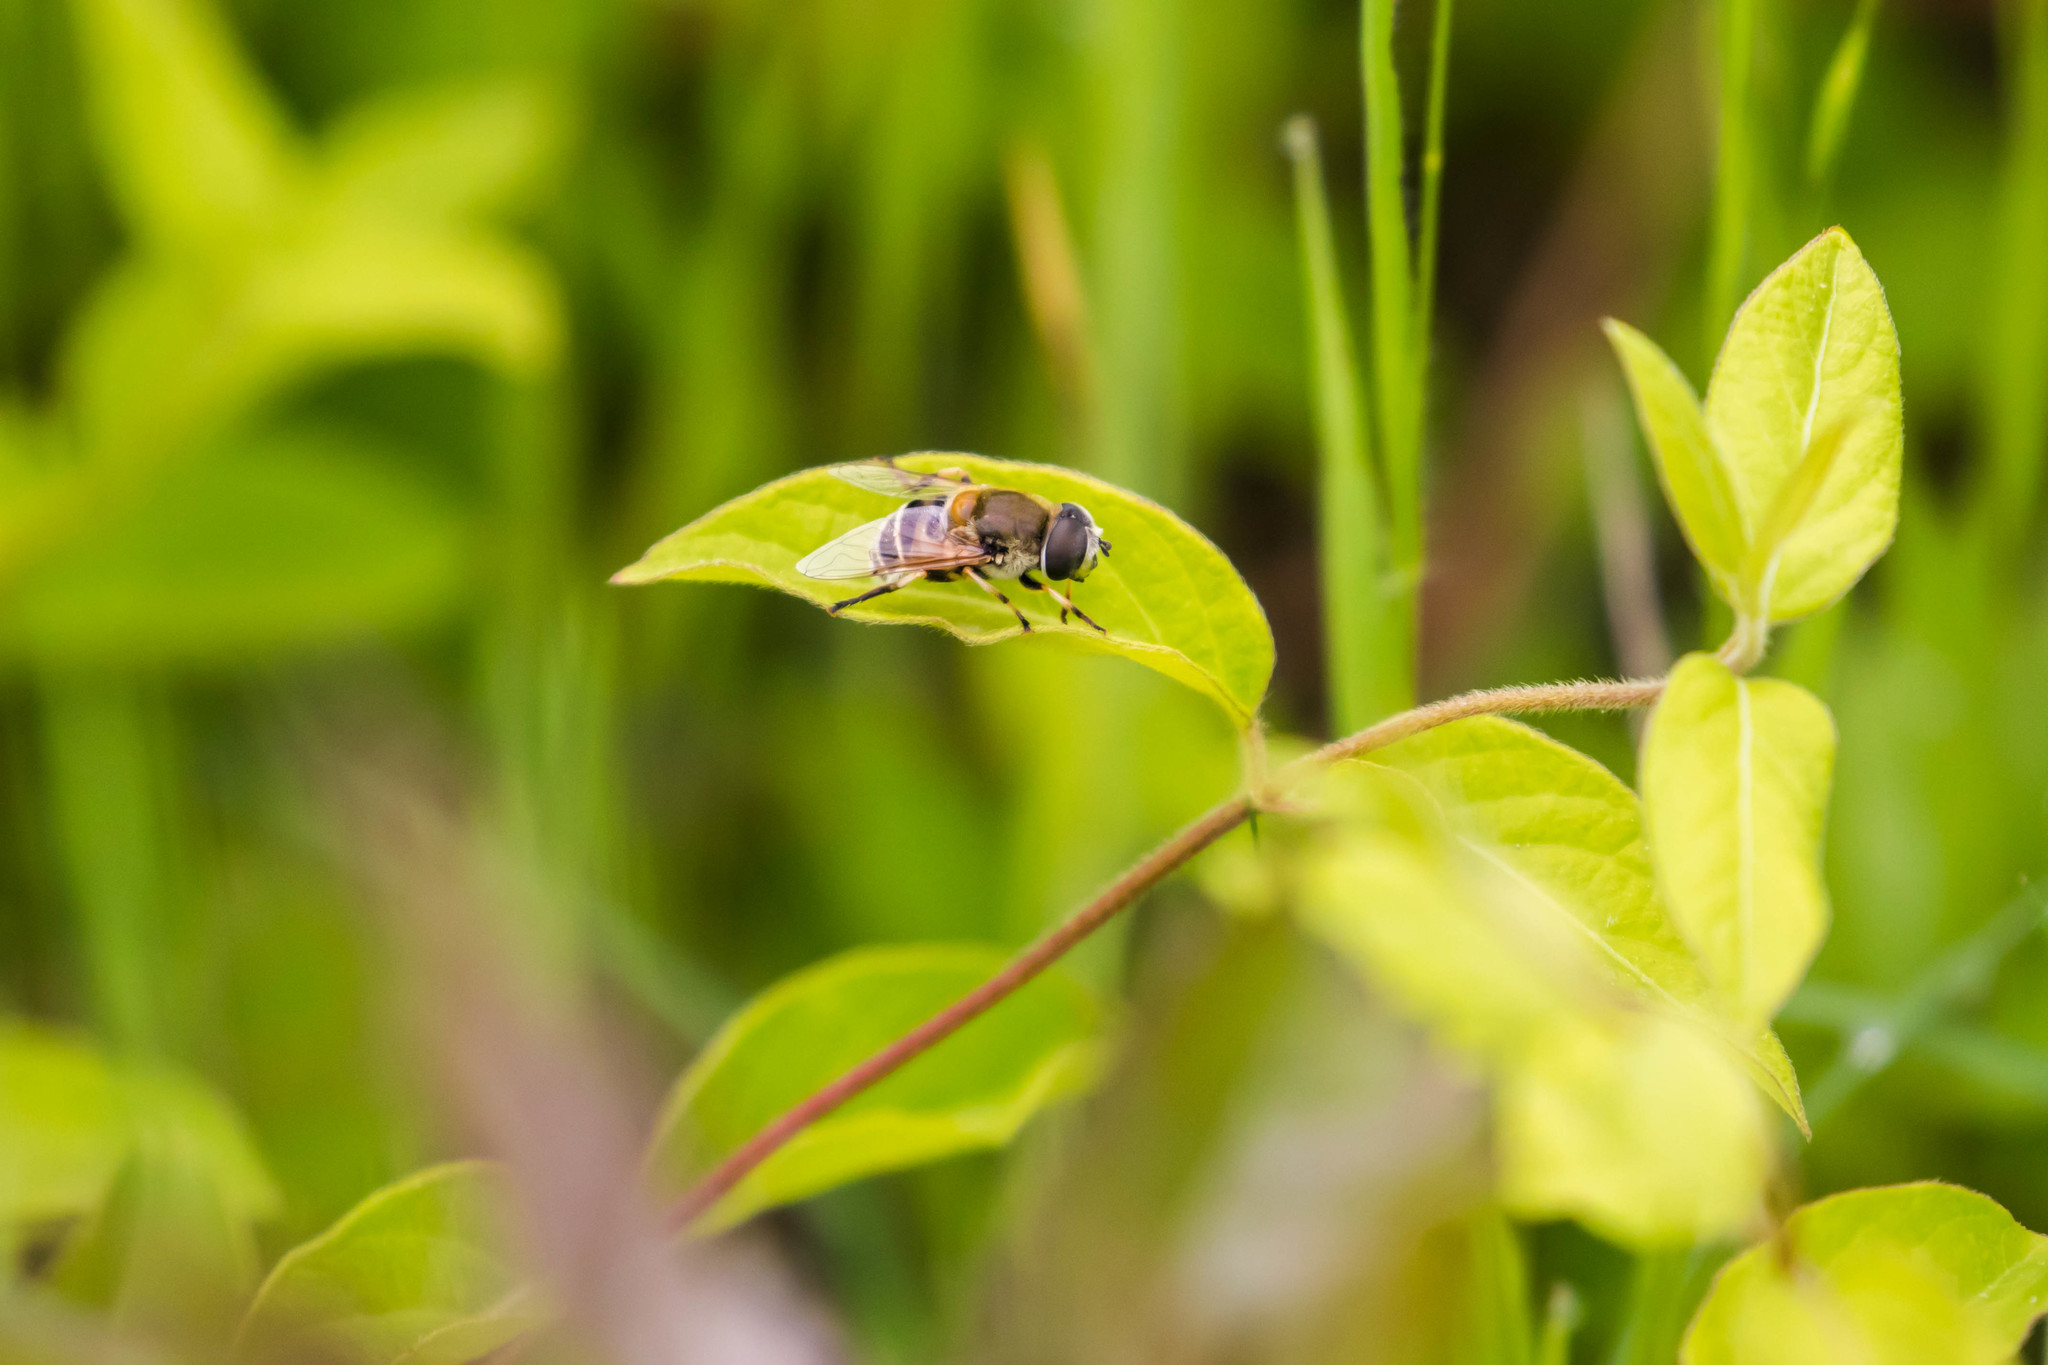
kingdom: Animalia
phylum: Arthropoda
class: Insecta
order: Diptera
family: Syrphidae
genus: Eristalis
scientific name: Eristalis stipator
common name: Yellow-shouldered drone fly
